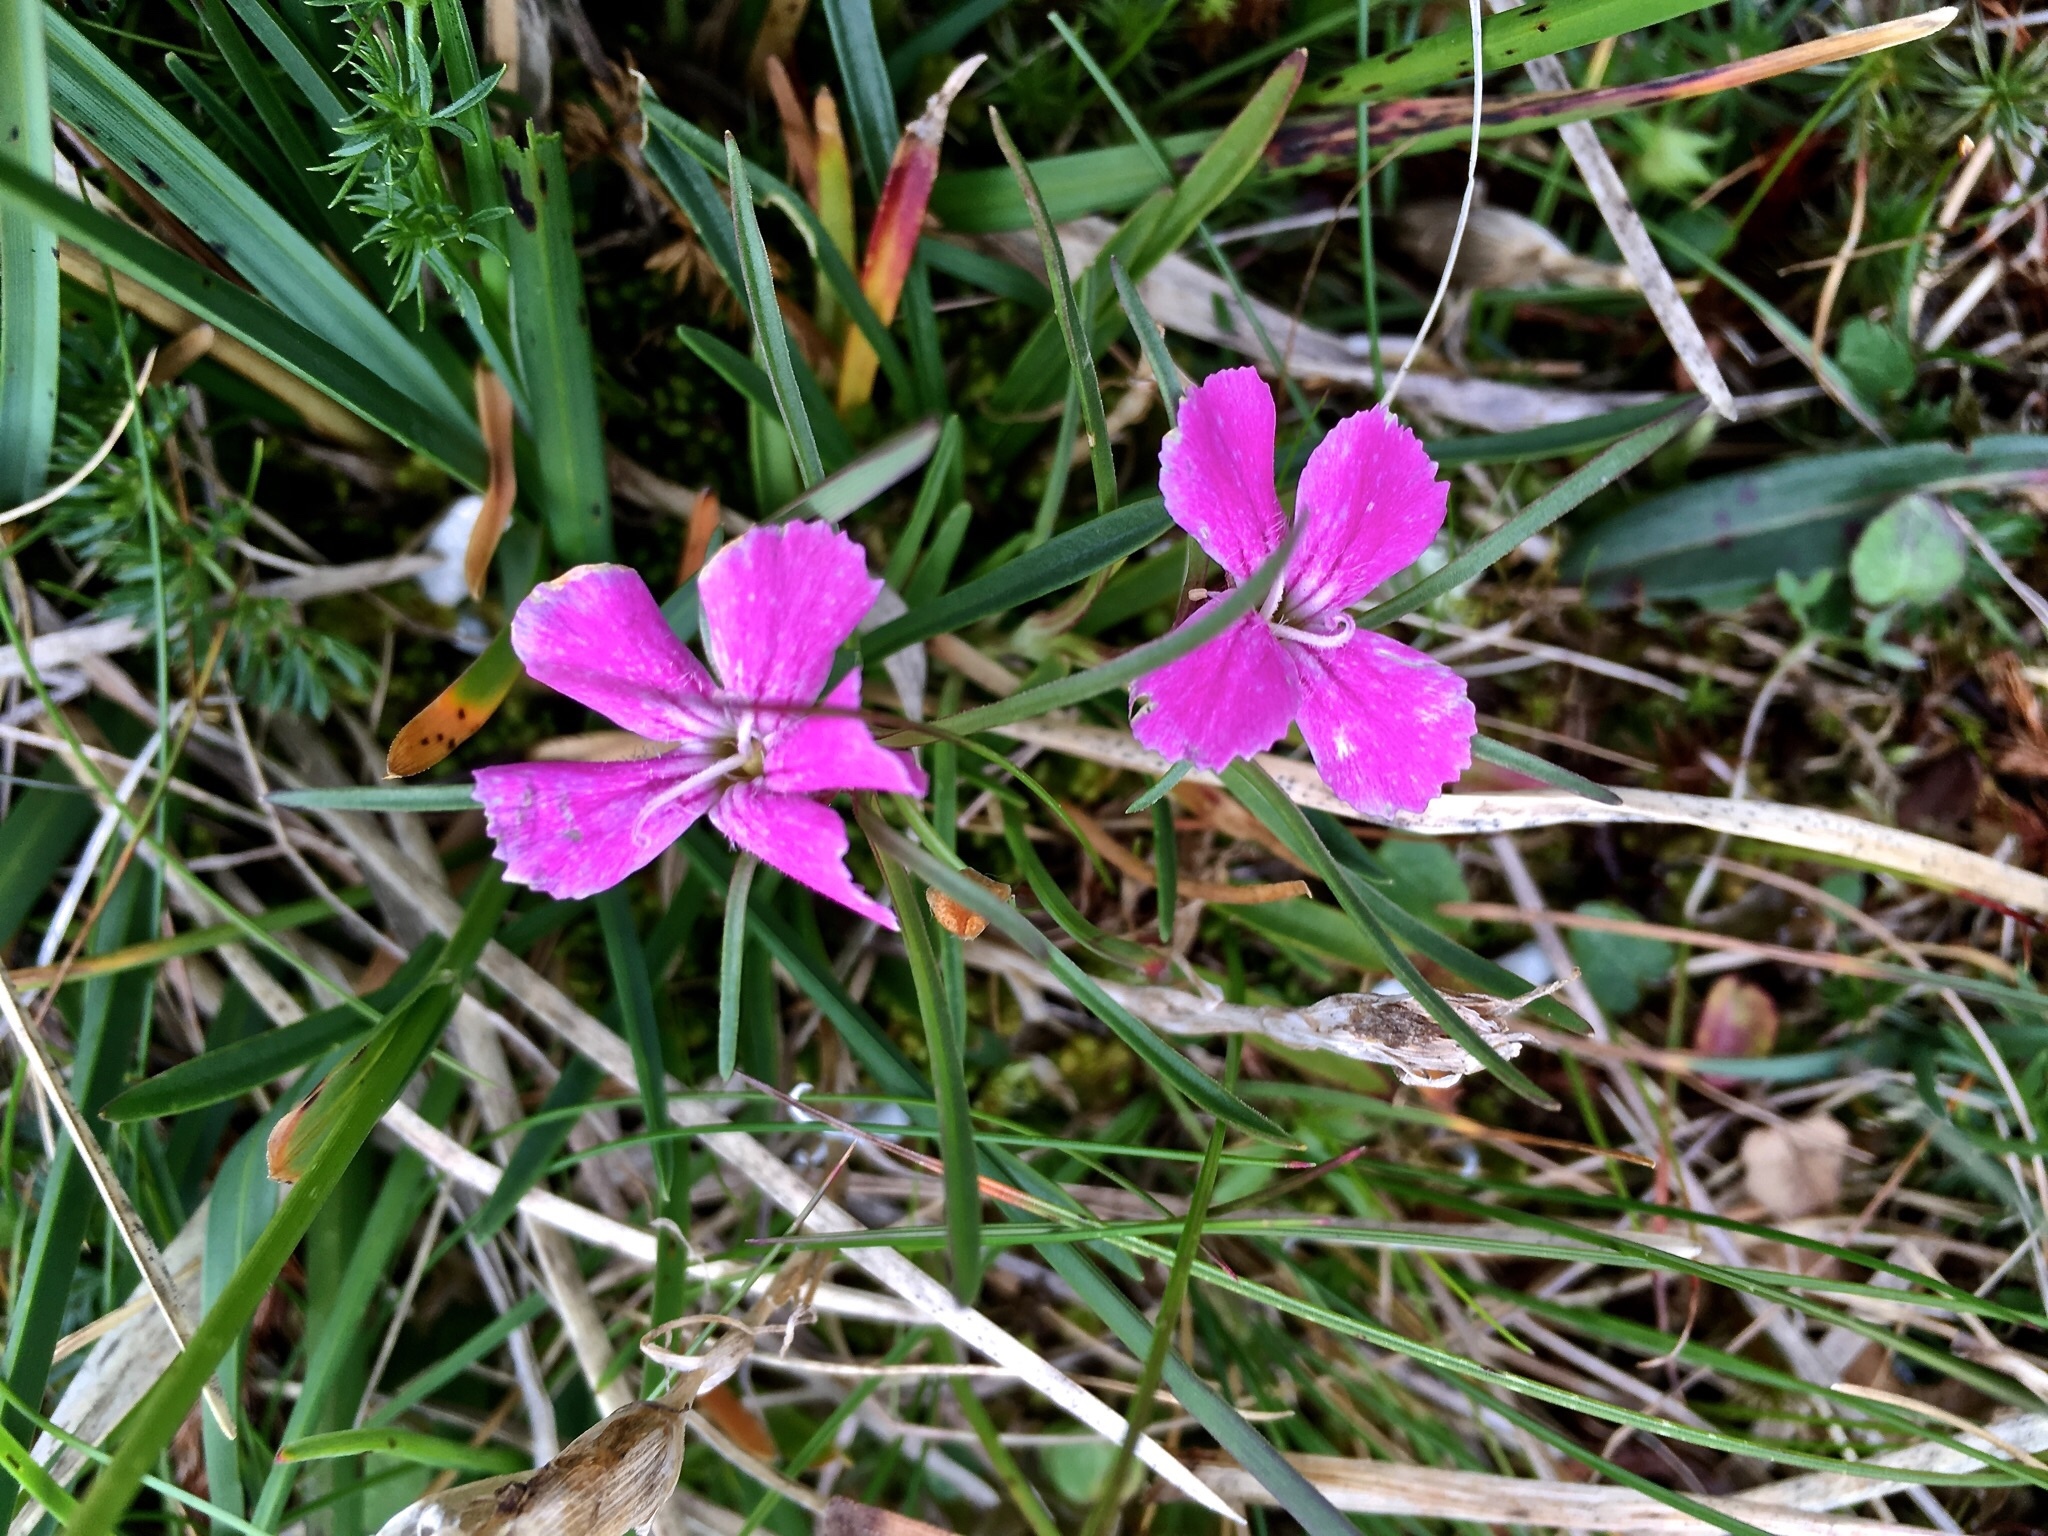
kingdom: Plantae
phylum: Tracheophyta
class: Magnoliopsida
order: Caryophyllales
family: Caryophyllaceae
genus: Dianthus
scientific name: Dianthus glacialis
